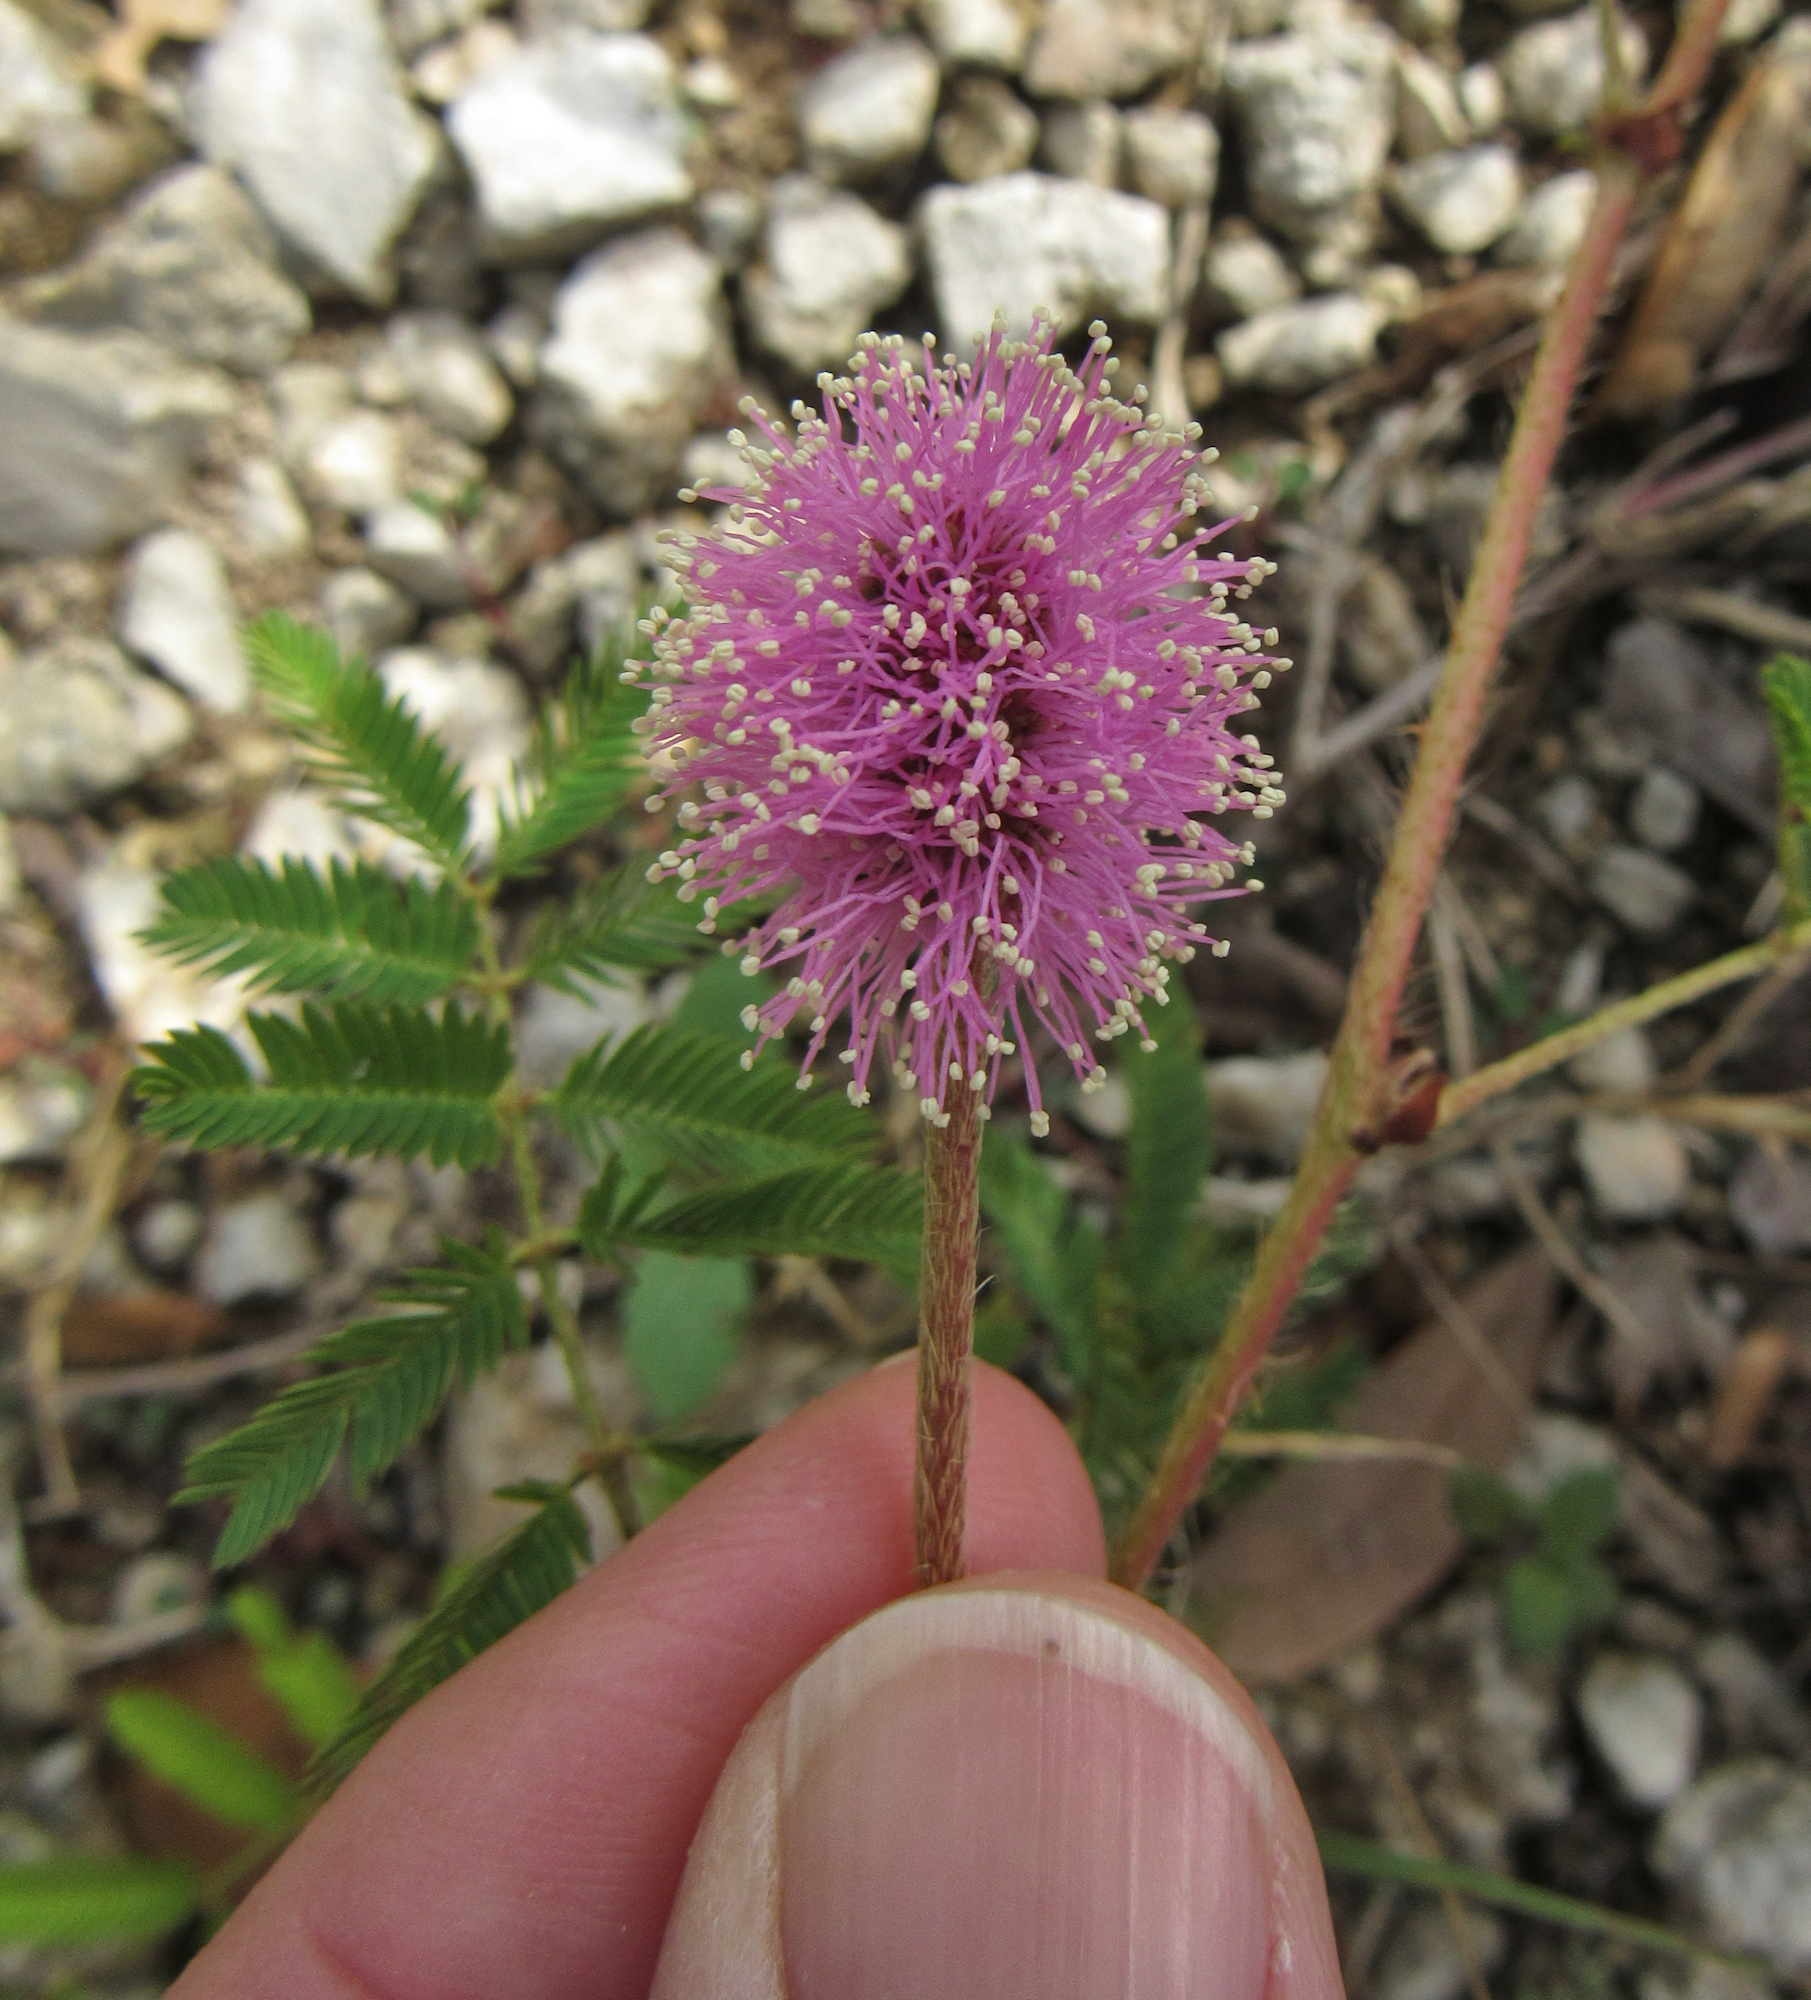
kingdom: Plantae
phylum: Tracheophyta
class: Magnoliopsida
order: Fabales
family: Fabaceae
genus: Mimosa
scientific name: Mimosa strigillosa
